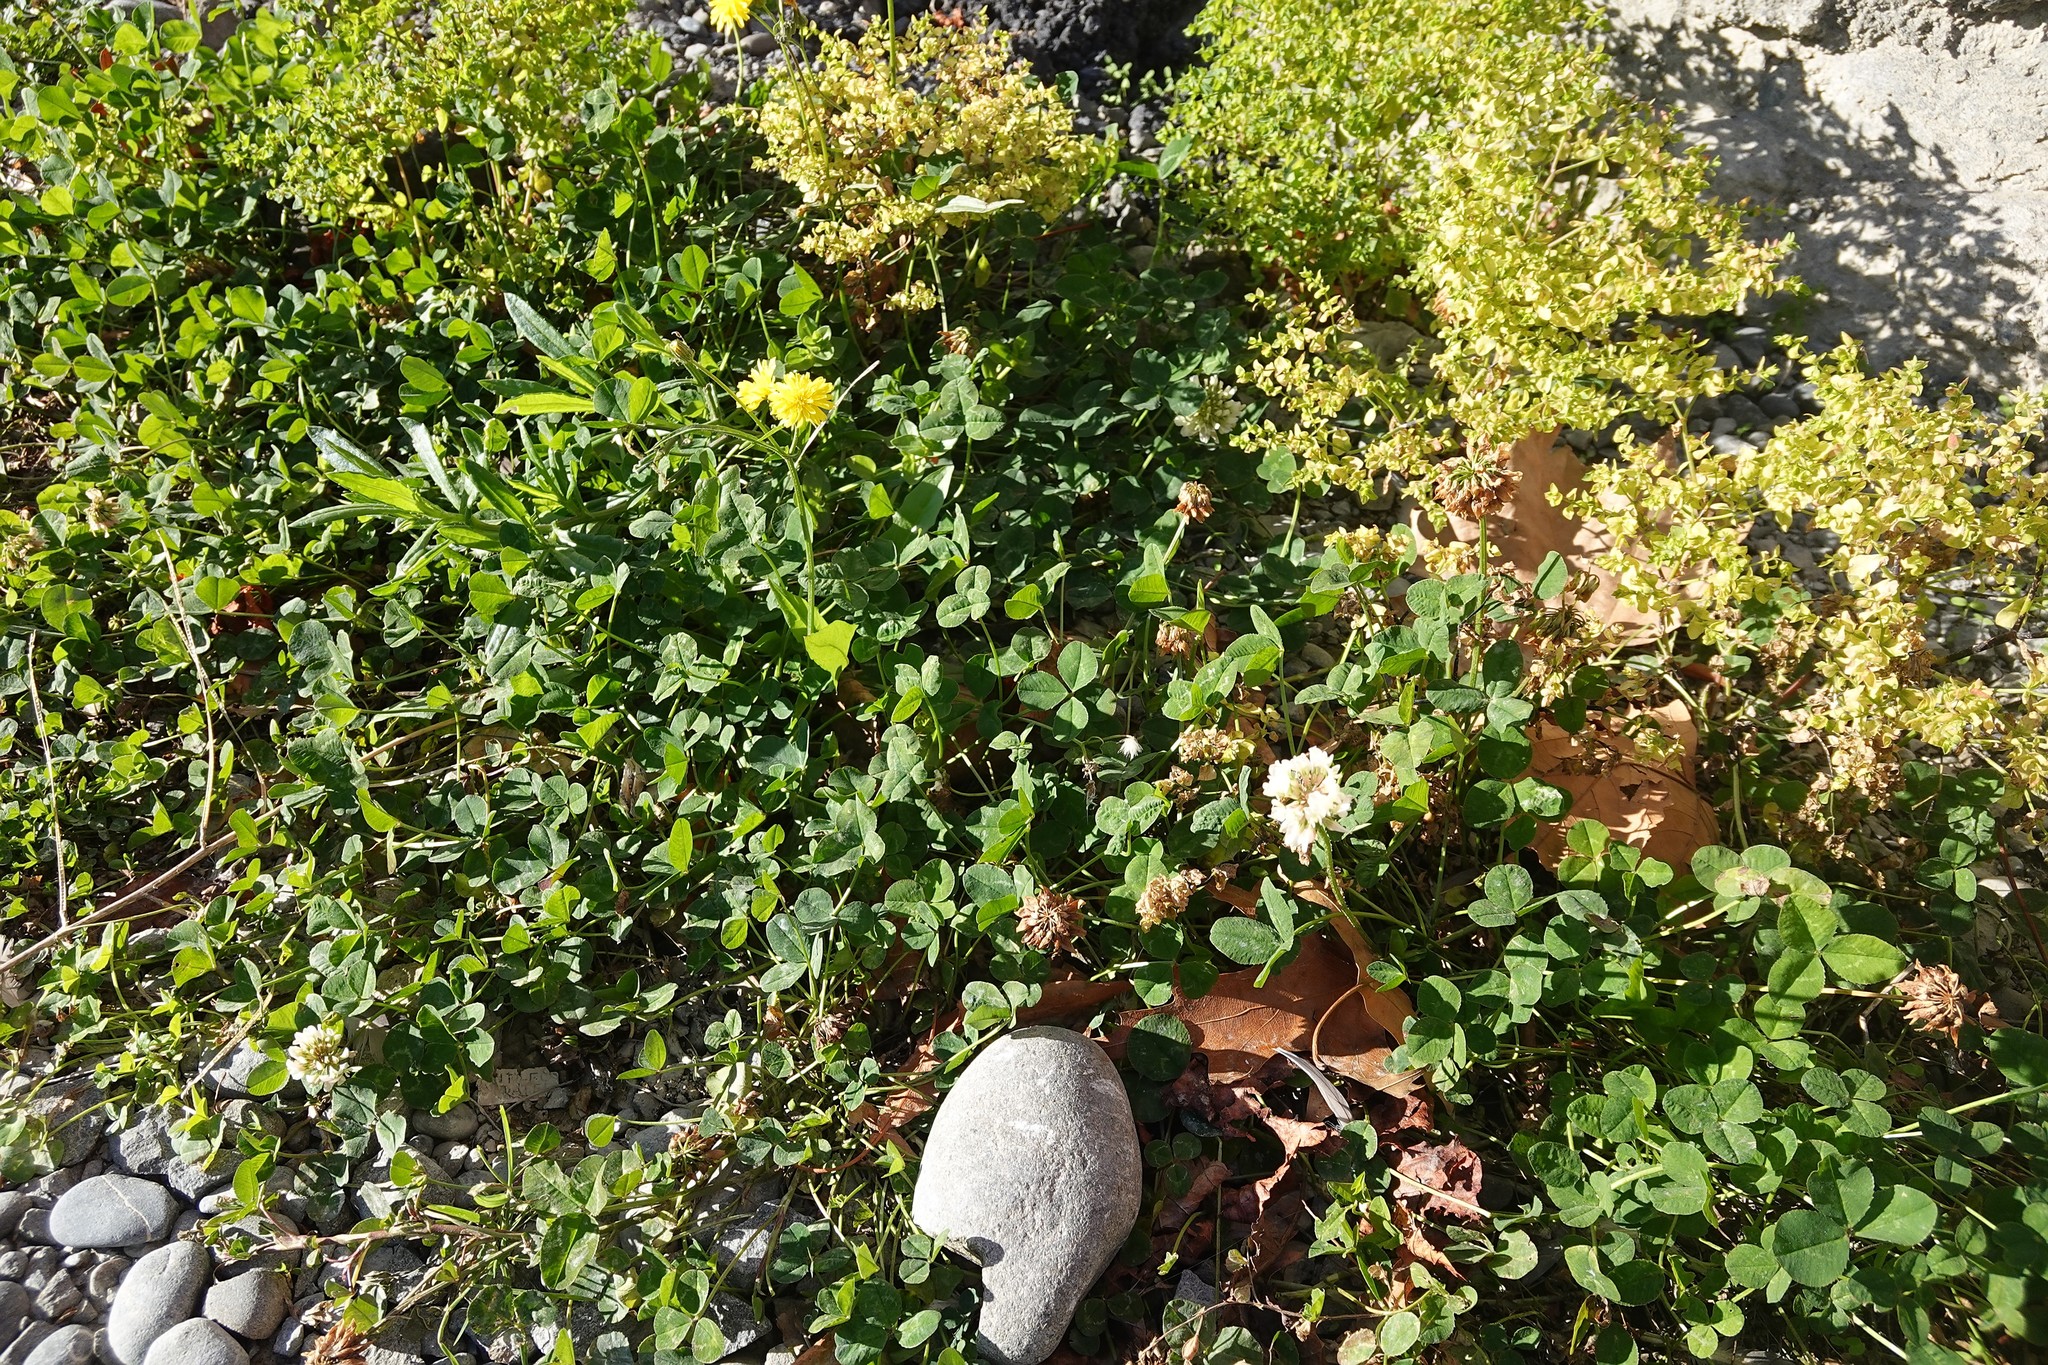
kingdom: Plantae
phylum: Tracheophyta
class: Magnoliopsida
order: Fabales
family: Fabaceae
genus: Trifolium
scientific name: Trifolium repens
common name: White clover
